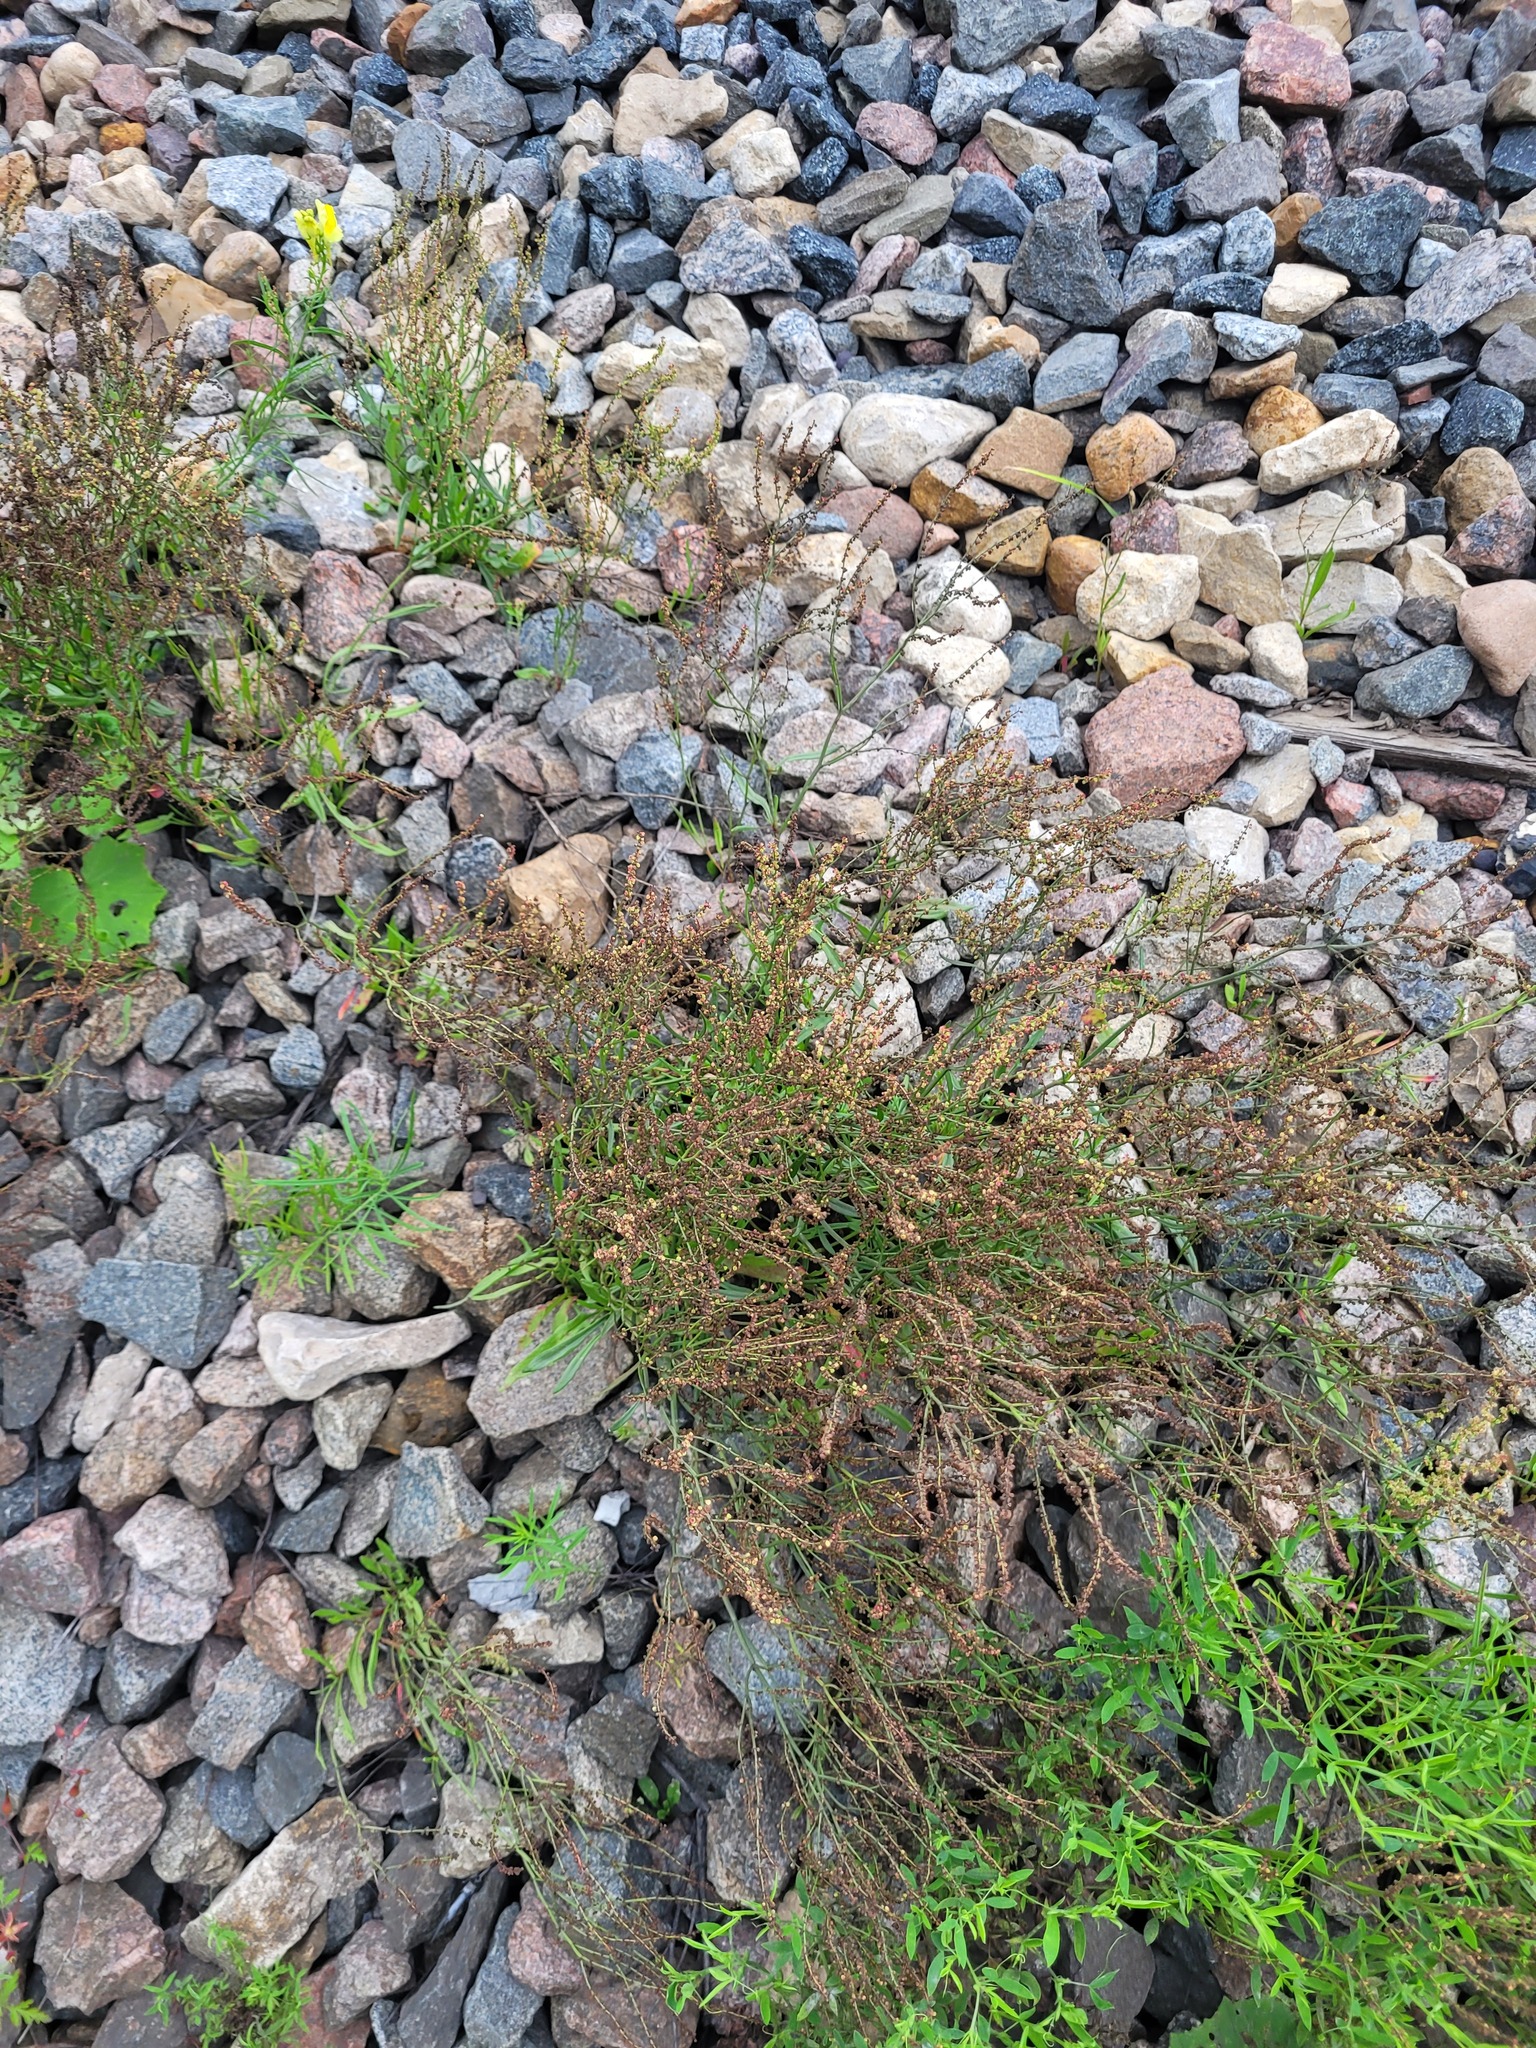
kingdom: Plantae
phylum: Tracheophyta
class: Magnoliopsida
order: Caryophyllales
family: Polygonaceae
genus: Rumex
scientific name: Rumex acetosella
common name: Common sheep sorrel
